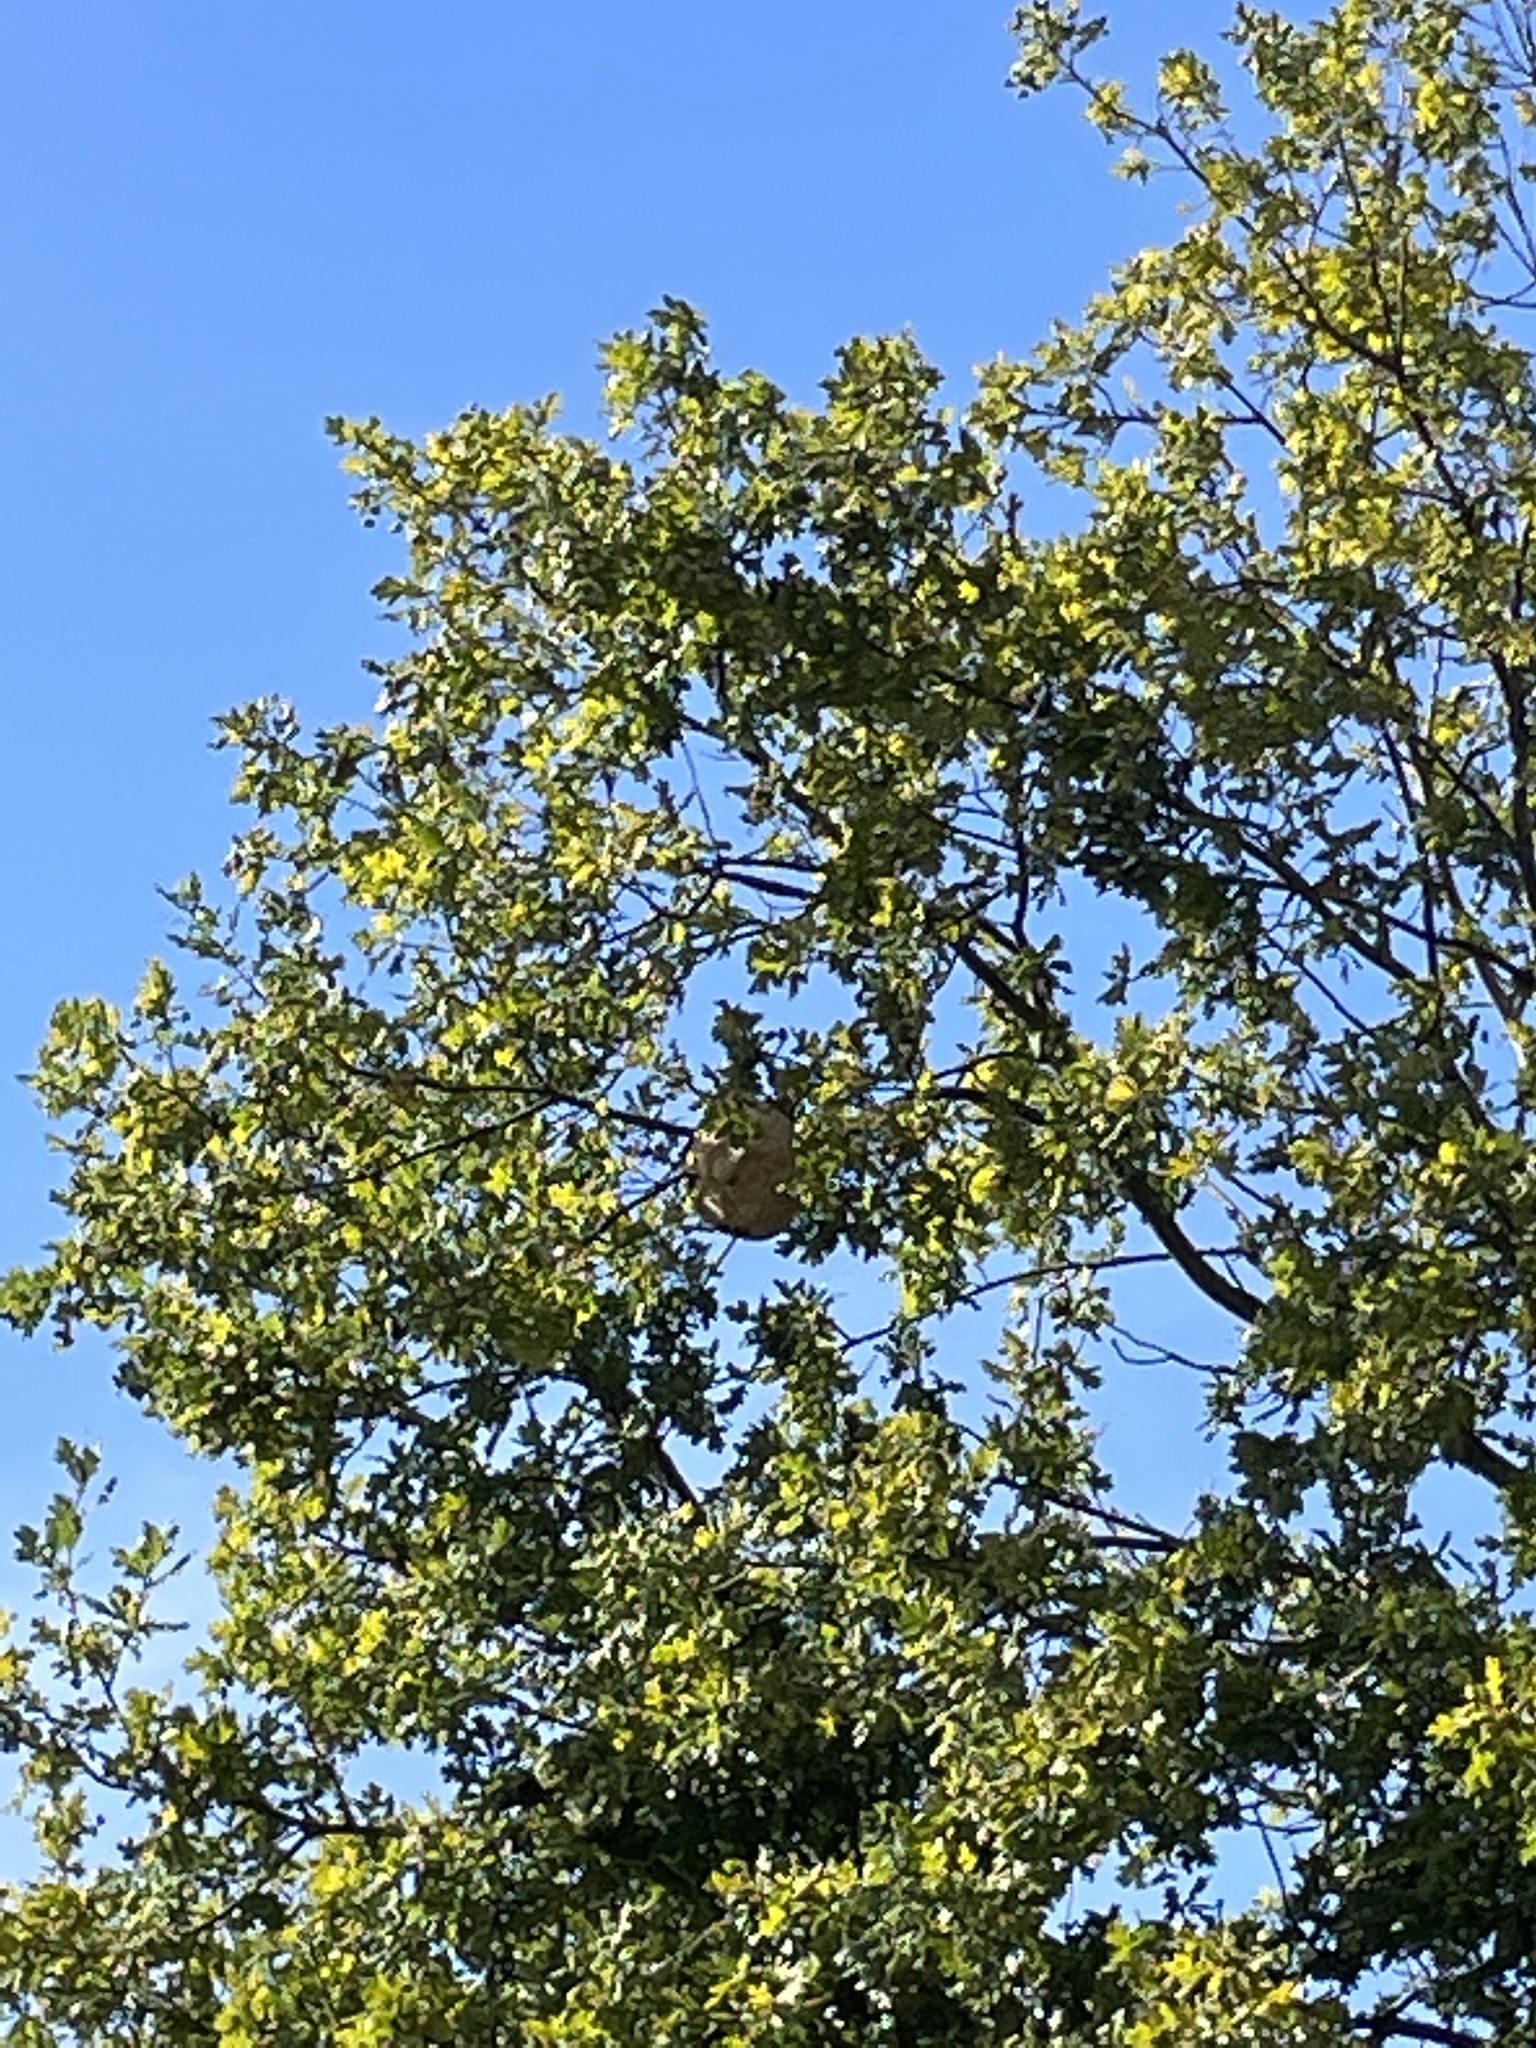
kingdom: Animalia
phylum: Arthropoda
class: Insecta
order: Hymenoptera
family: Vespidae
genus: Vespa
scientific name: Vespa velutina
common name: Asian hornet
